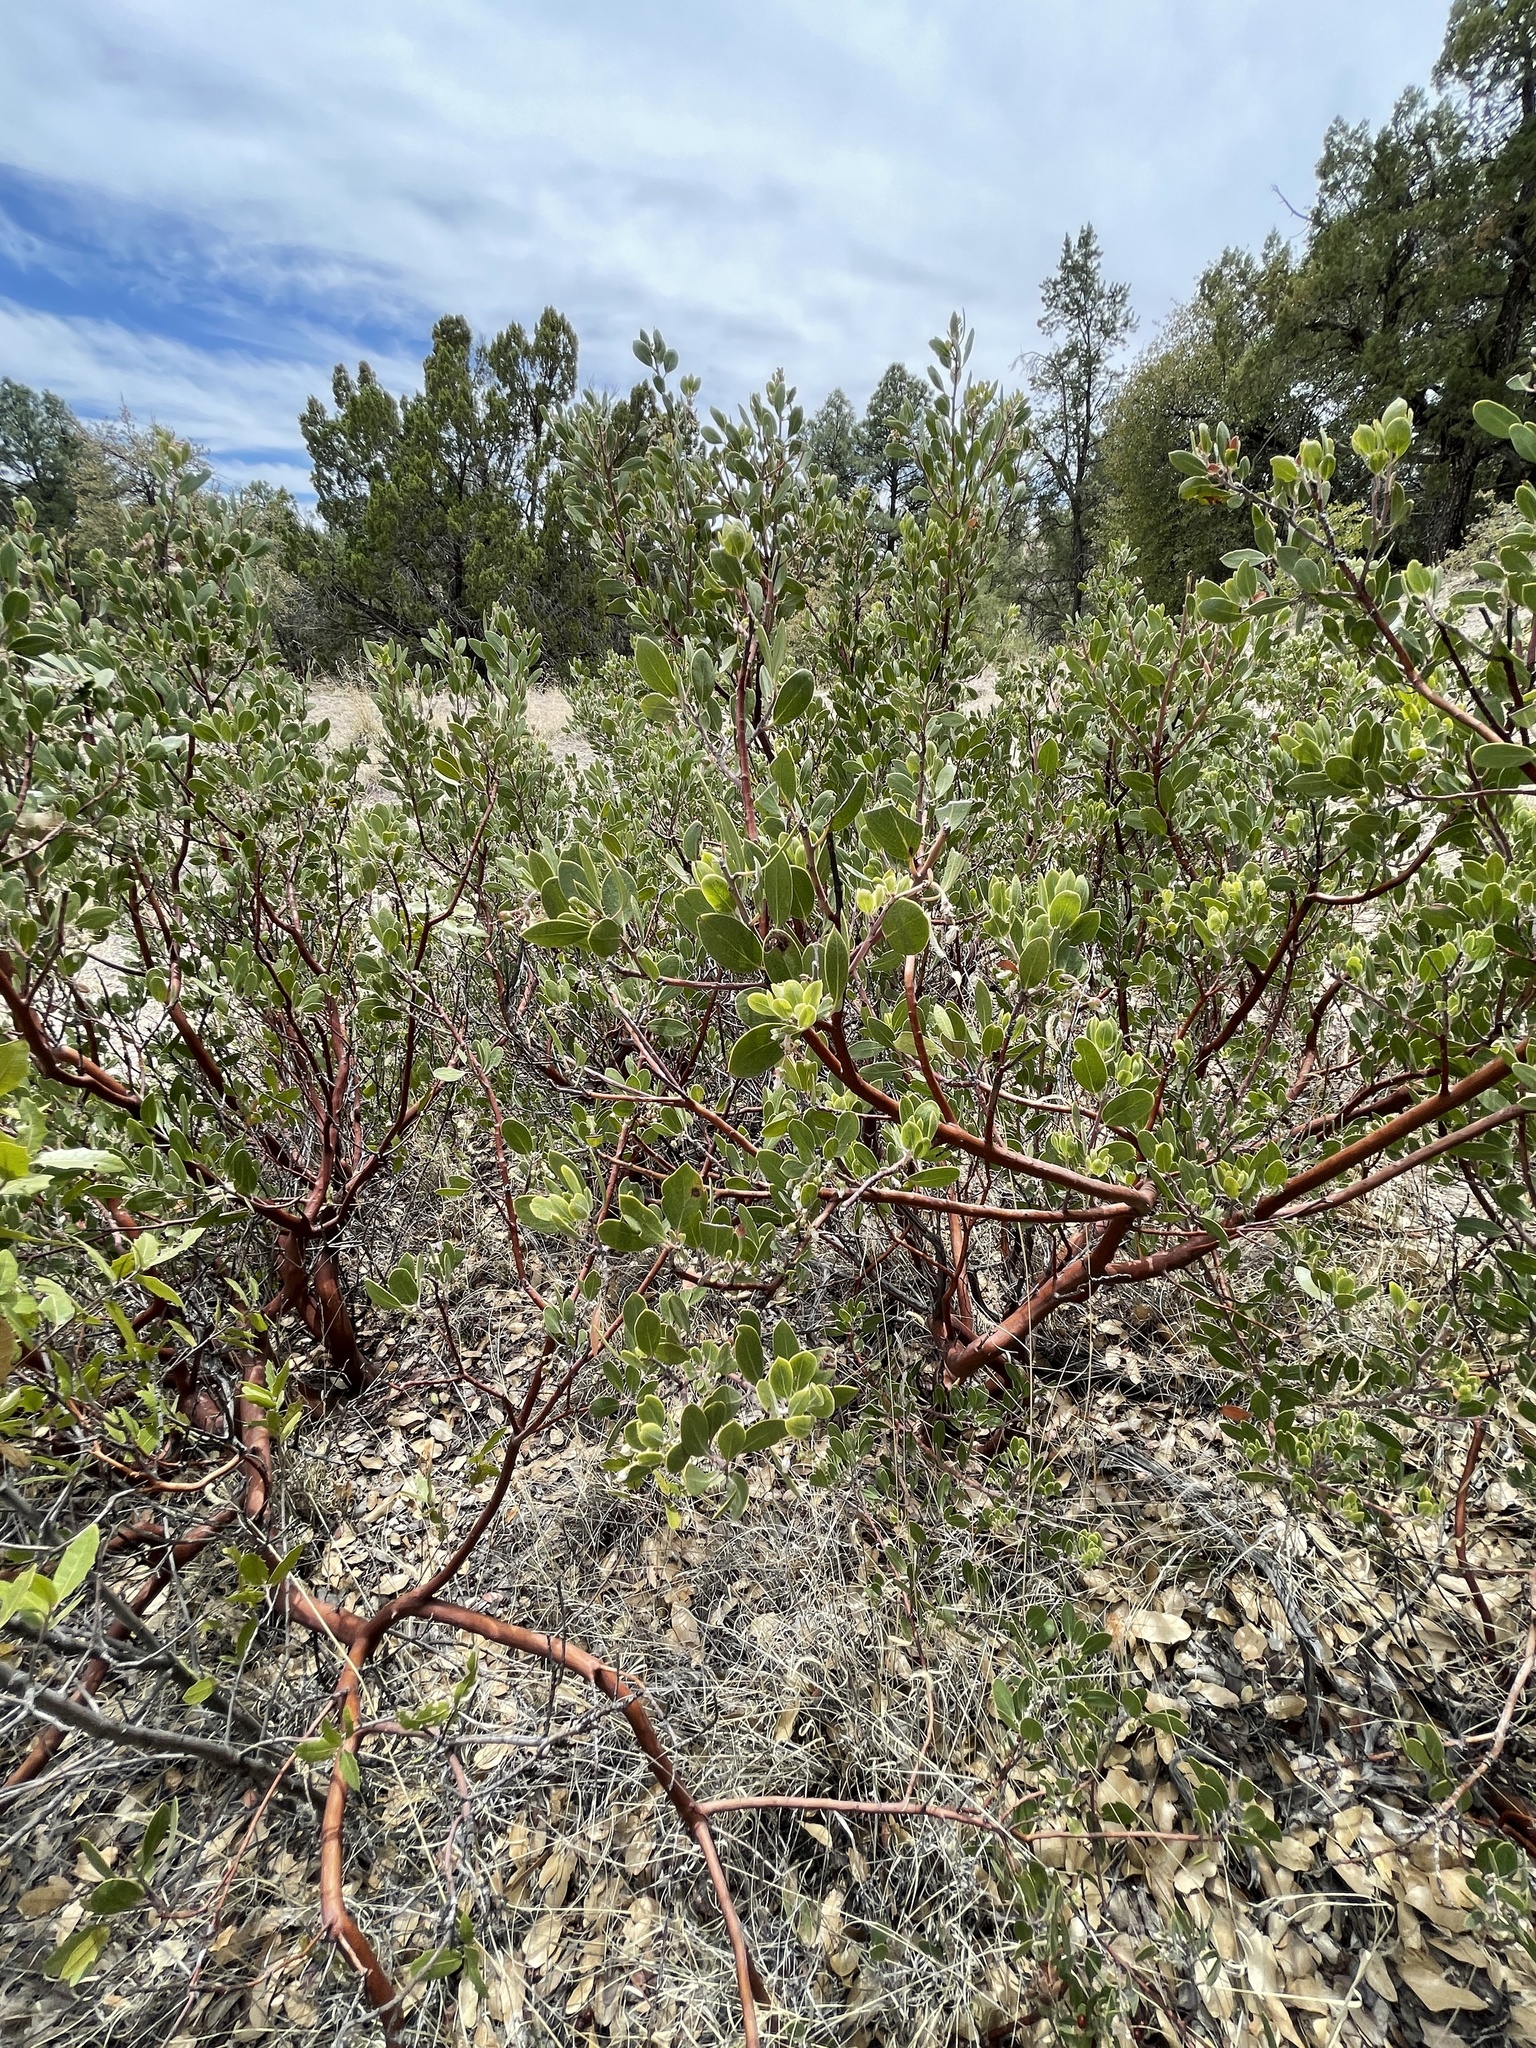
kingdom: Plantae
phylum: Tracheophyta
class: Magnoliopsida
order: Ericales
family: Ericaceae
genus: Arctostaphylos
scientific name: Arctostaphylos pungens
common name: Mexican manzanita
